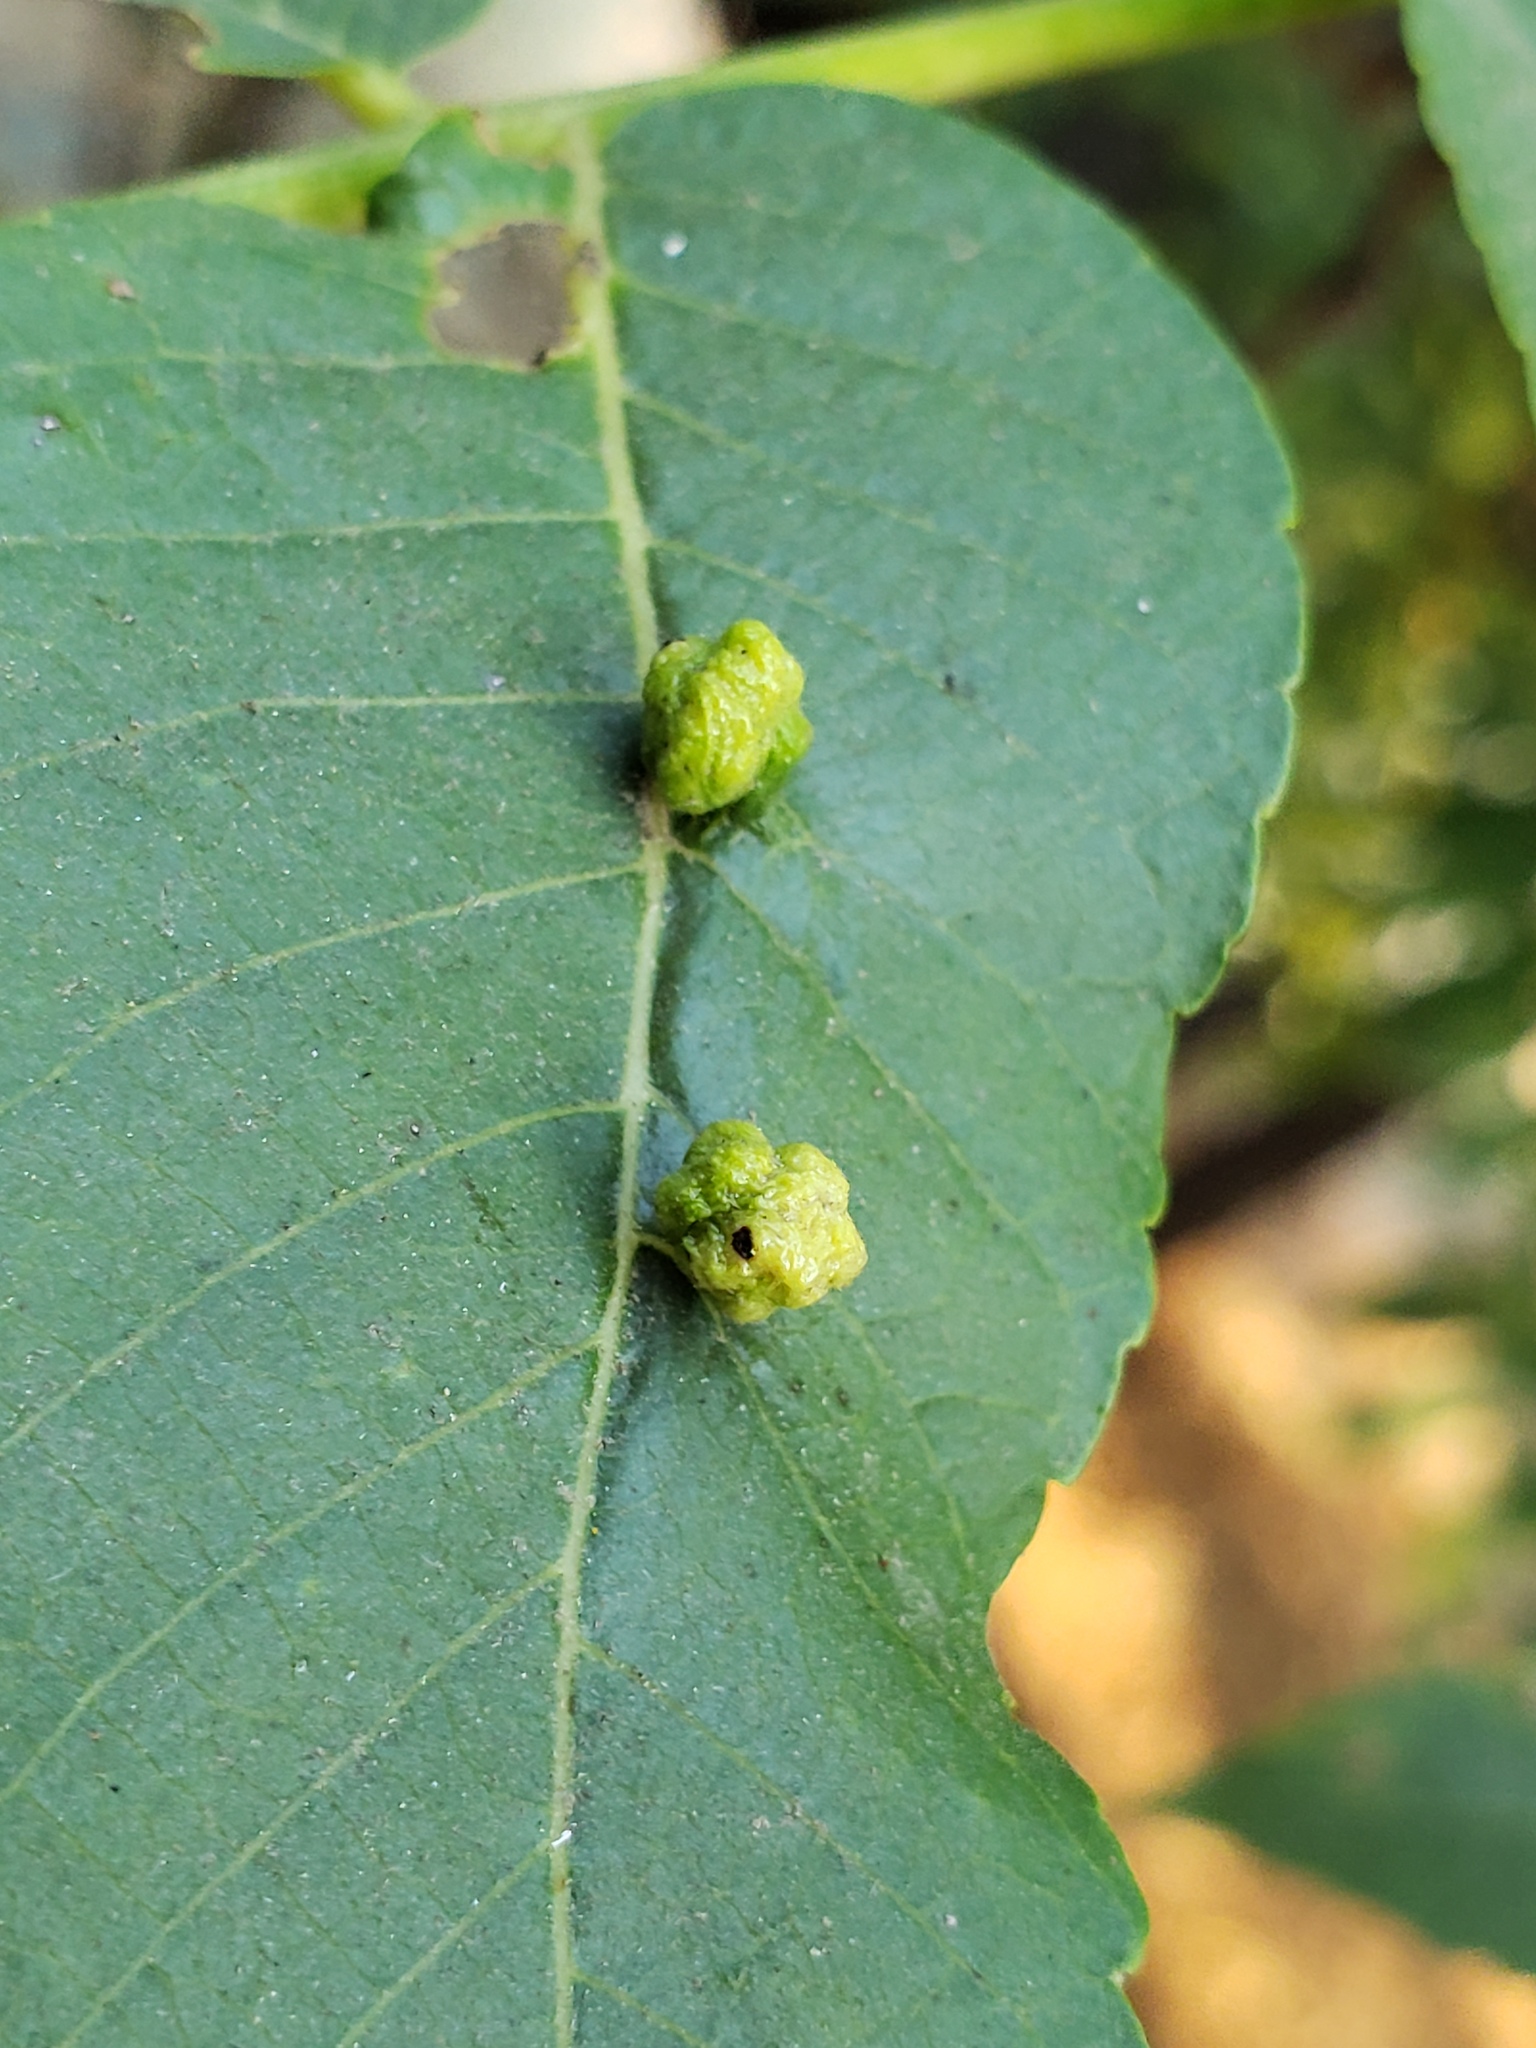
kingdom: Animalia
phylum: Arthropoda
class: Arachnida
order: Trombidiformes
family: Eriophyidae
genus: Aceria
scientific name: Aceria brachytarsus
